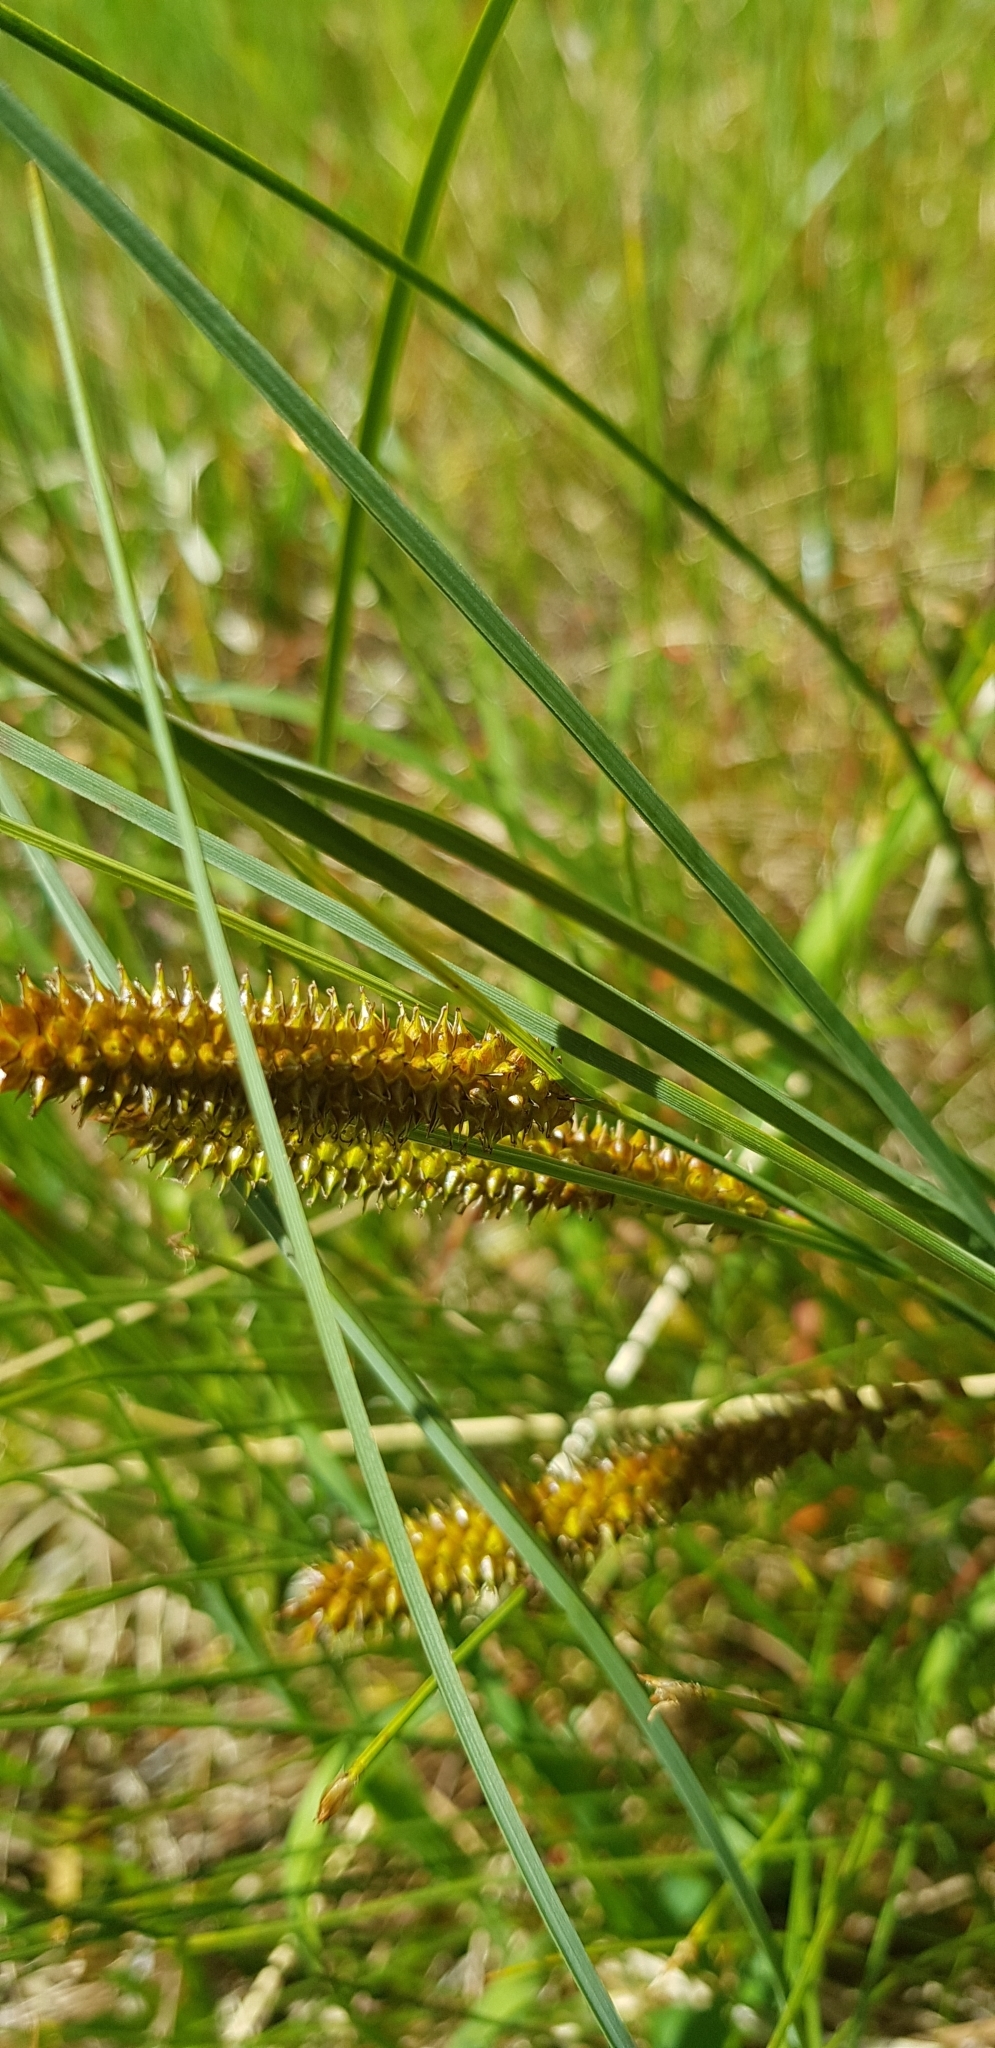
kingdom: Plantae
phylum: Tracheophyta
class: Liliopsida
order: Poales
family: Cyperaceae
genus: Carex
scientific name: Carex rostrata
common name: Bottle sedge
